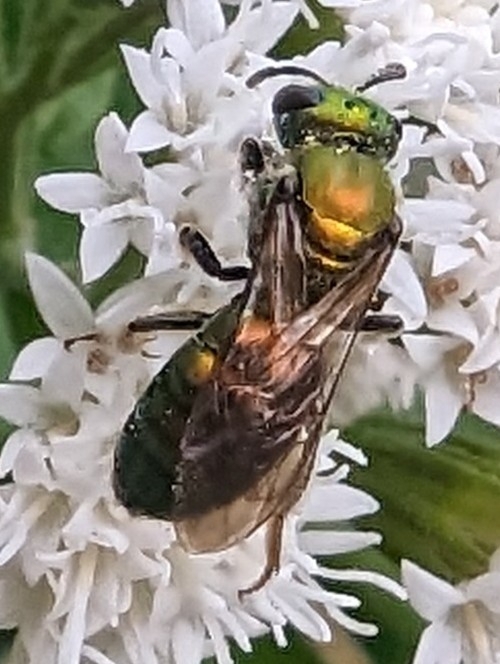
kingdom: Animalia
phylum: Arthropoda
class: Insecta
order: Hymenoptera
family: Halictidae
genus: Augochlora
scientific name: Augochlora pura
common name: Pure green sweat bee
